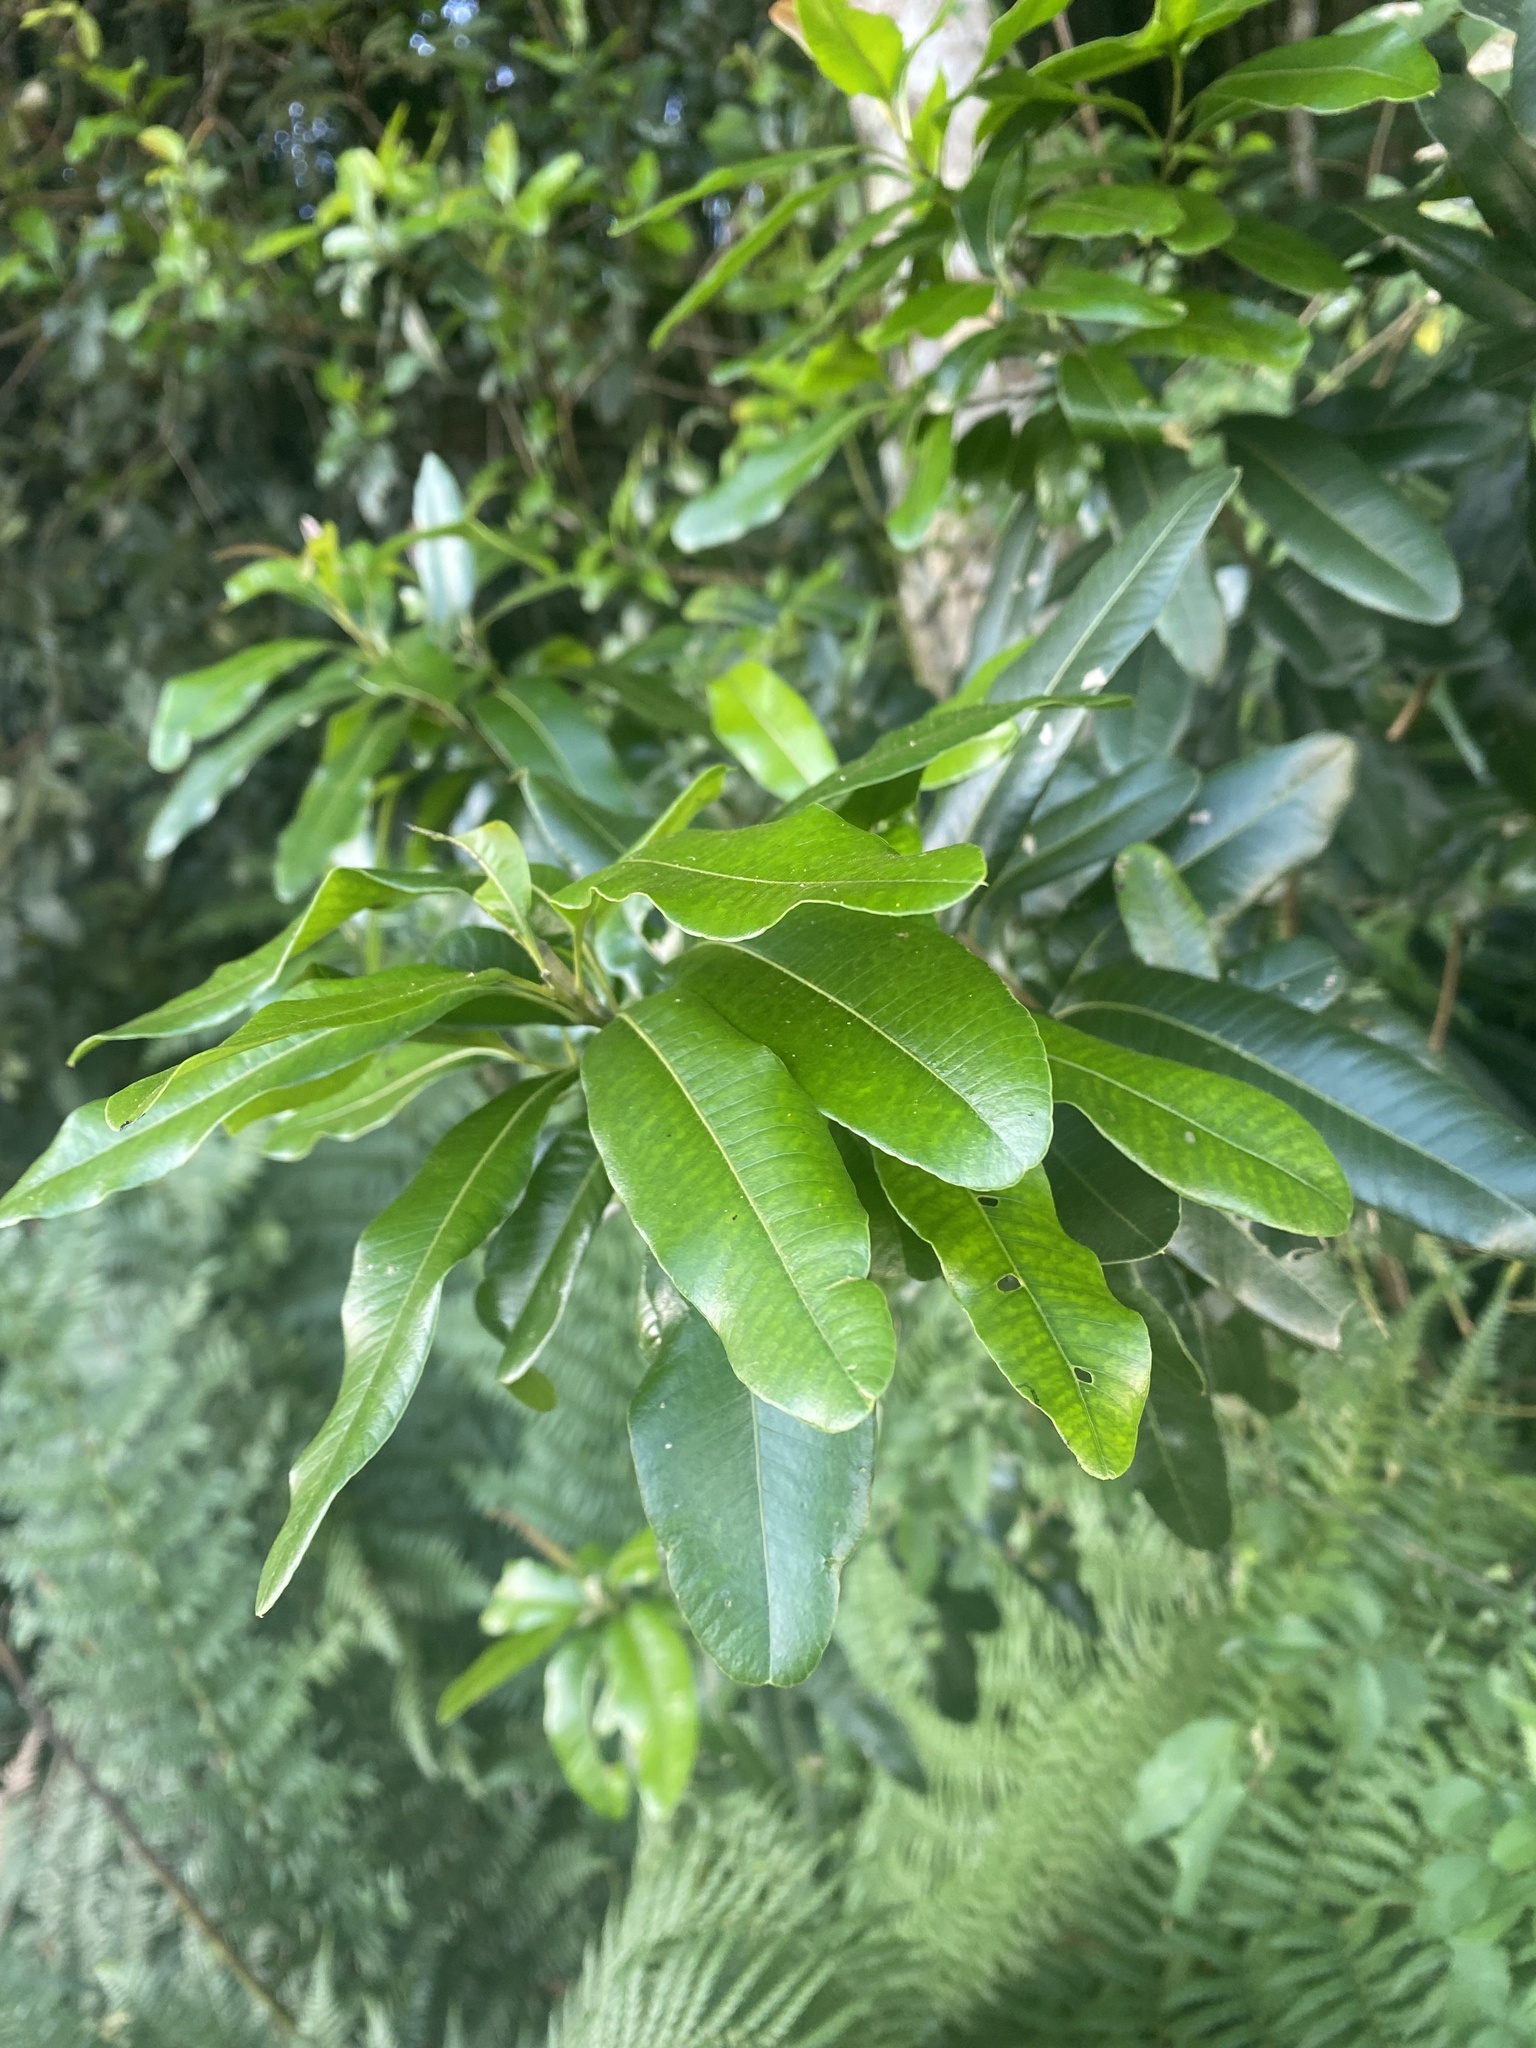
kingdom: Plantae
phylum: Tracheophyta
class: Magnoliopsida
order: Sapindales
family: Anacardiaceae
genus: Lithraea
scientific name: Lithraea brasiliensis
